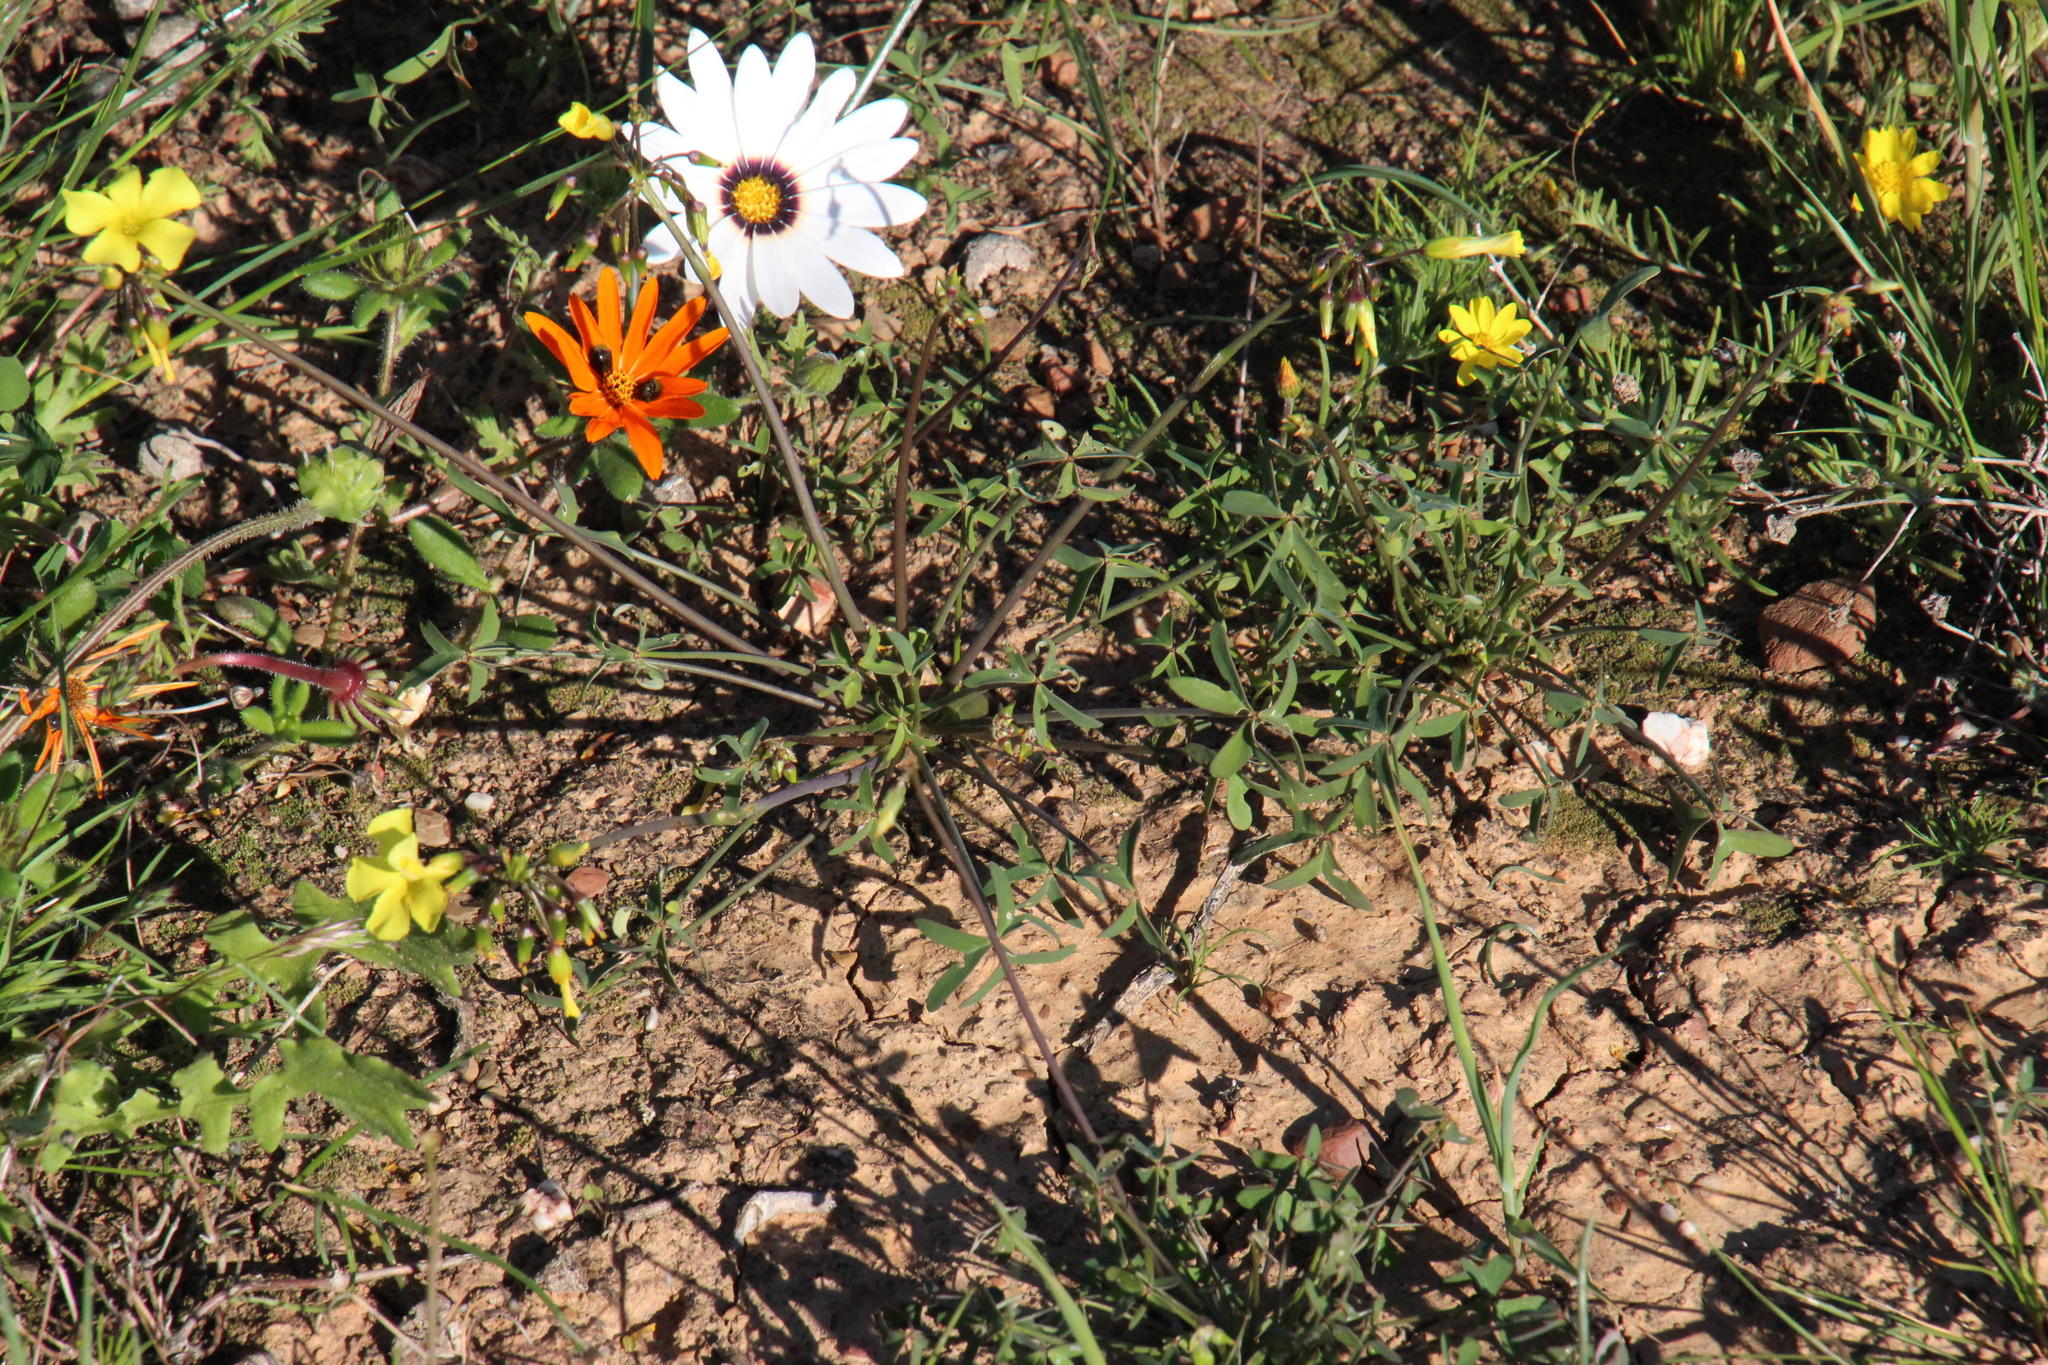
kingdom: Plantae
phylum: Tracheophyta
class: Magnoliopsida
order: Oxalidales
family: Oxalidaceae
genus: Oxalis
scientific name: Oxalis pes-caprae
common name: Bermuda-buttercup
